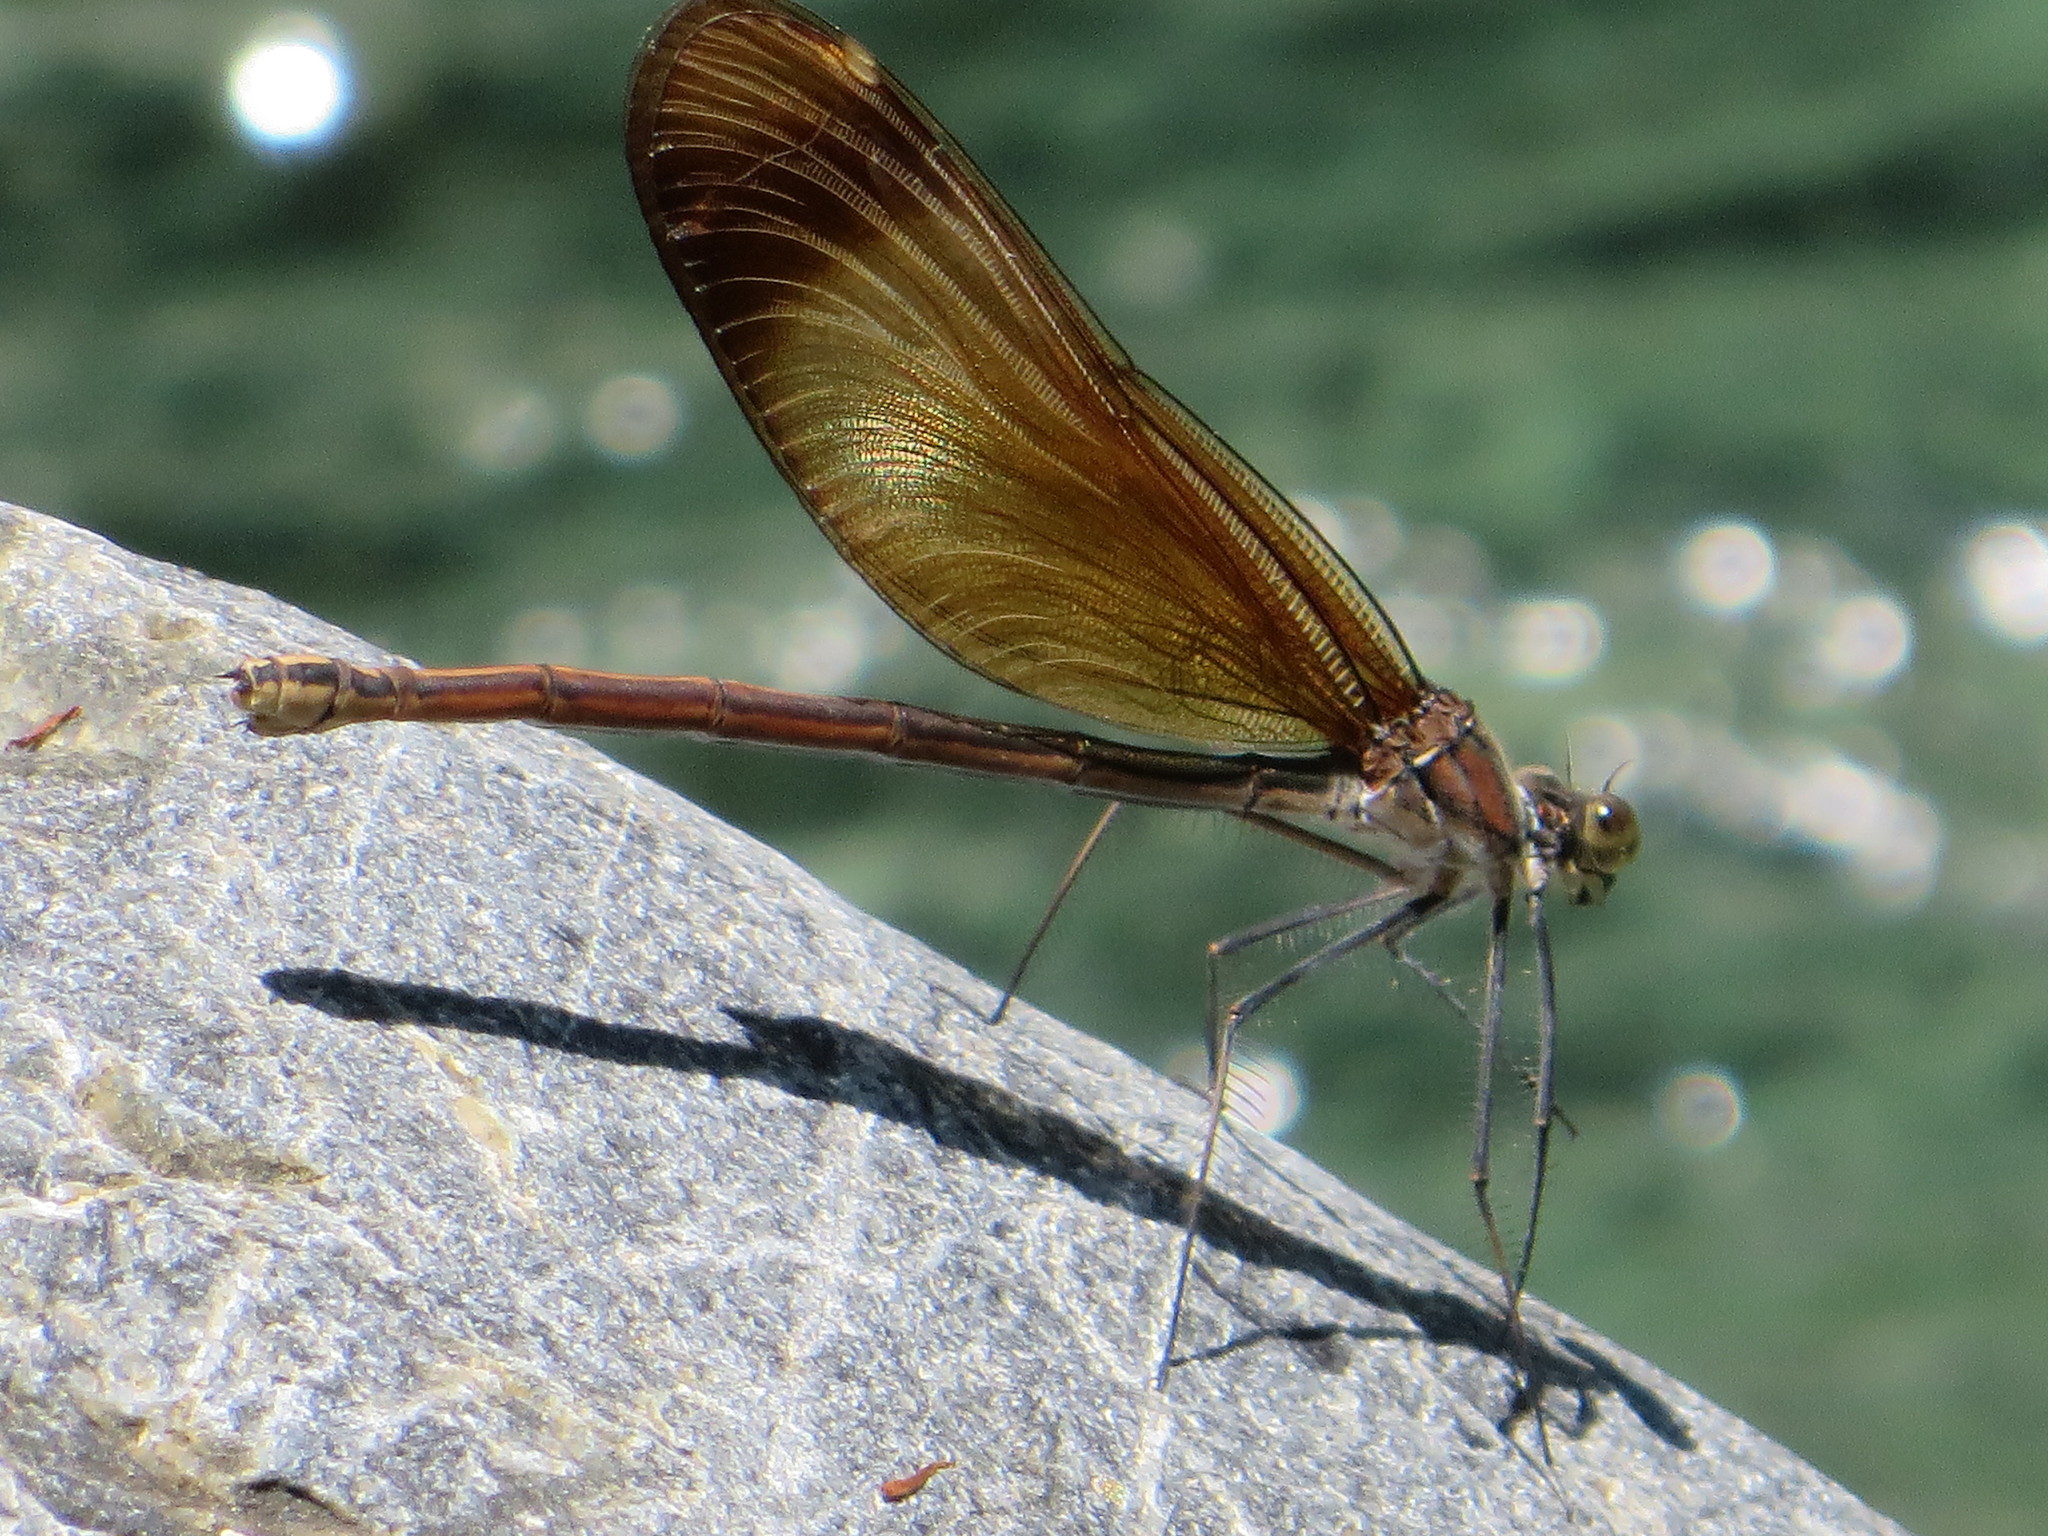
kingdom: Animalia
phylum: Arthropoda
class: Insecta
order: Odonata
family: Calopterygidae
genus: Calopteryx
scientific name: Calopteryx cornelia
